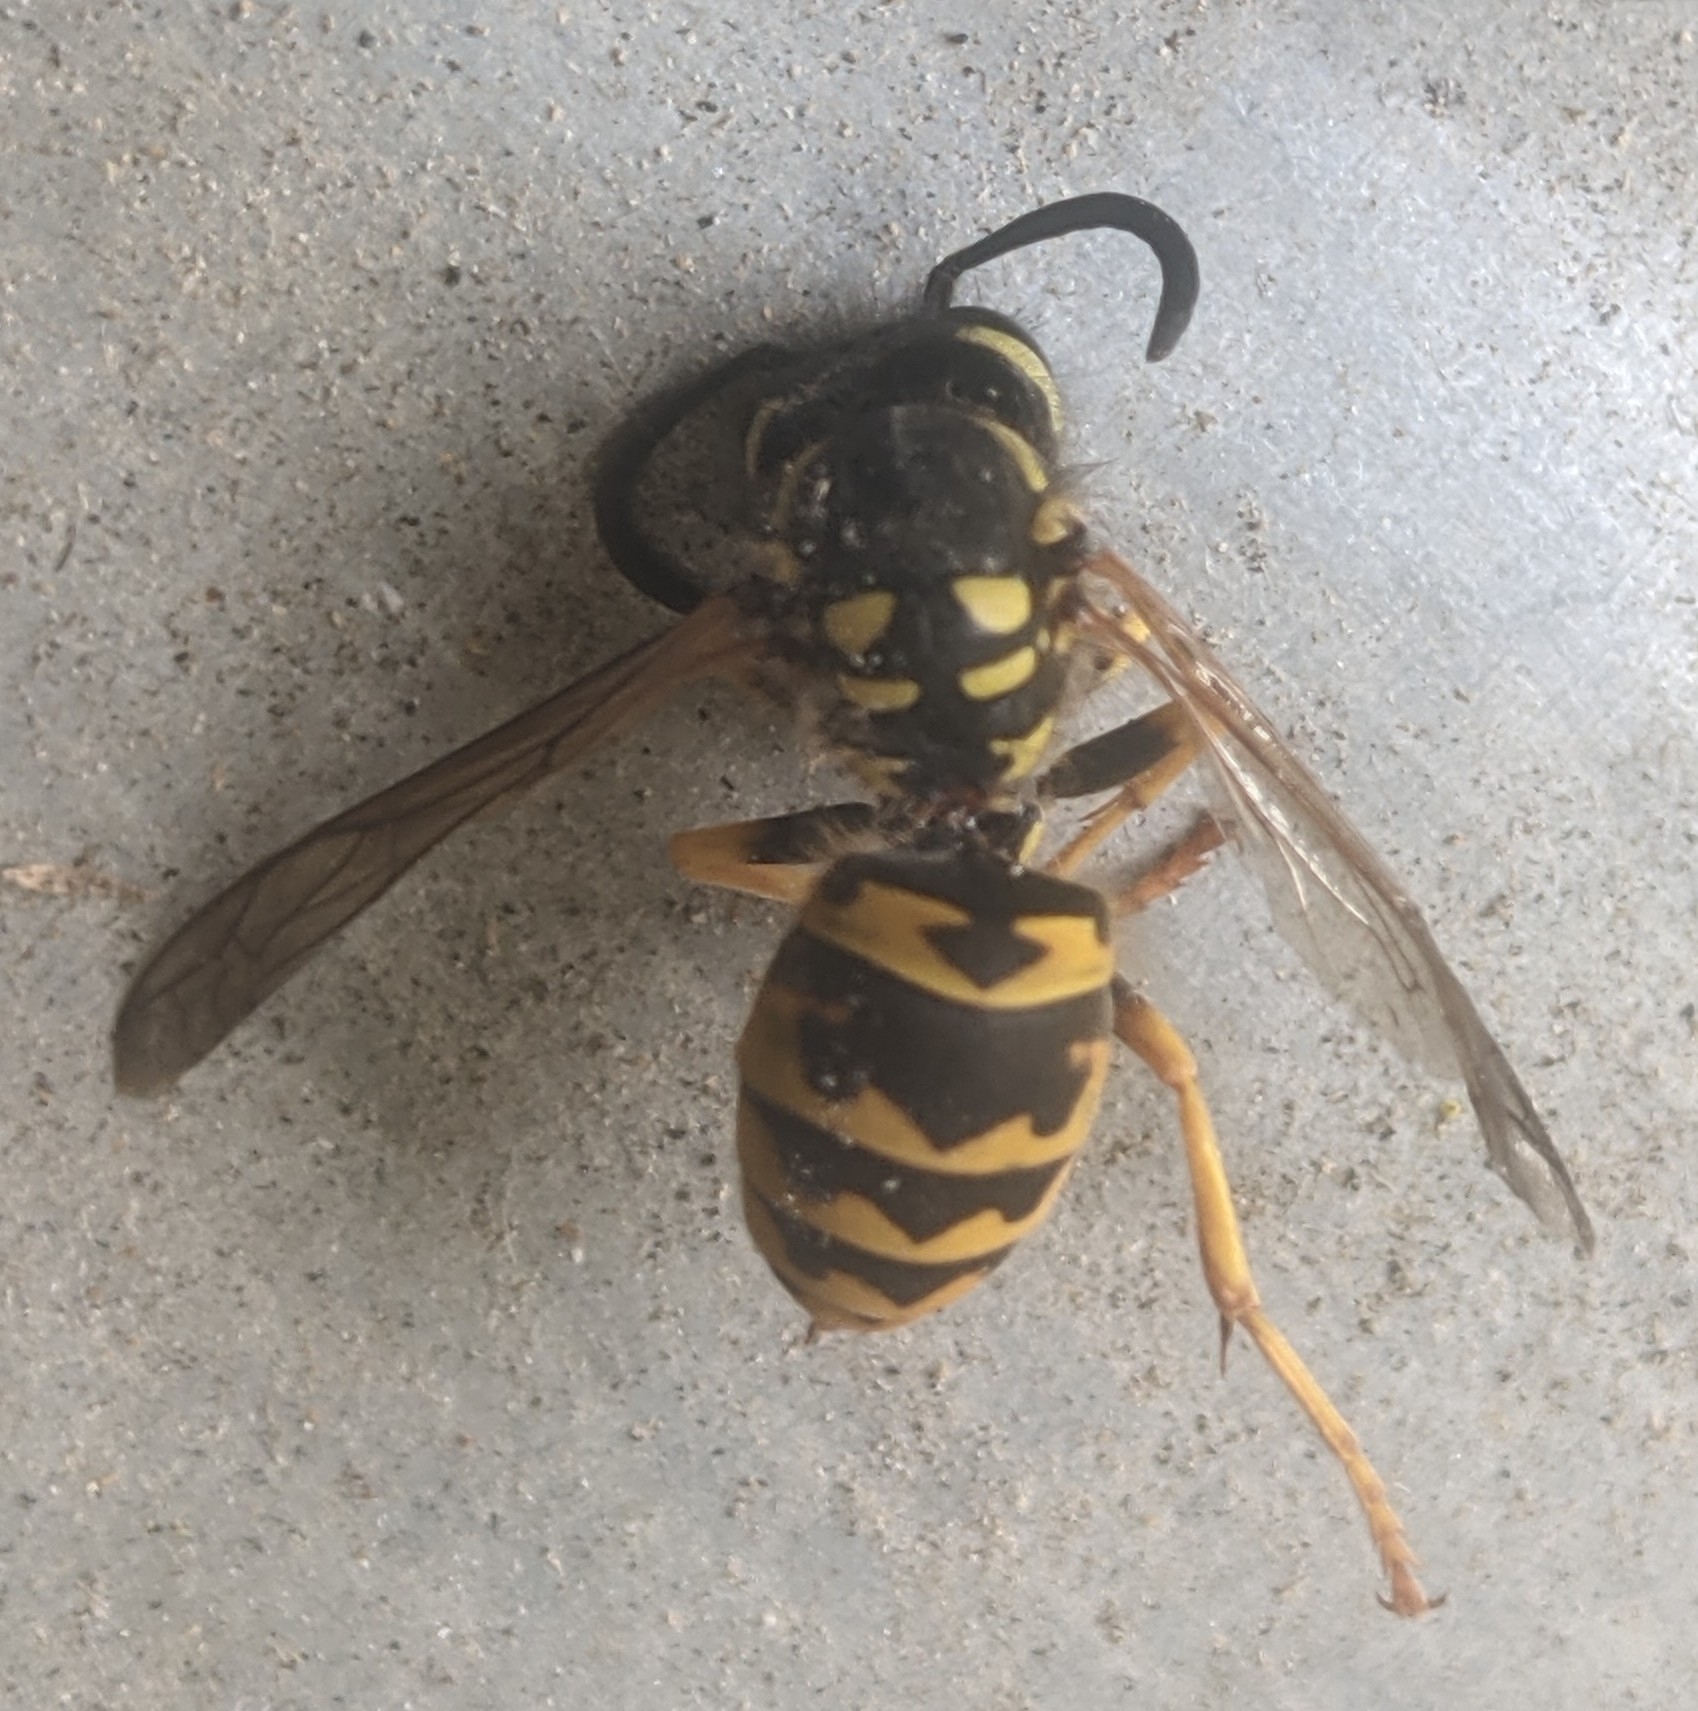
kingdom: Animalia
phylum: Arthropoda
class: Insecta
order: Hymenoptera
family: Vespidae
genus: Vespula
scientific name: Vespula germanica
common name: German wasp
